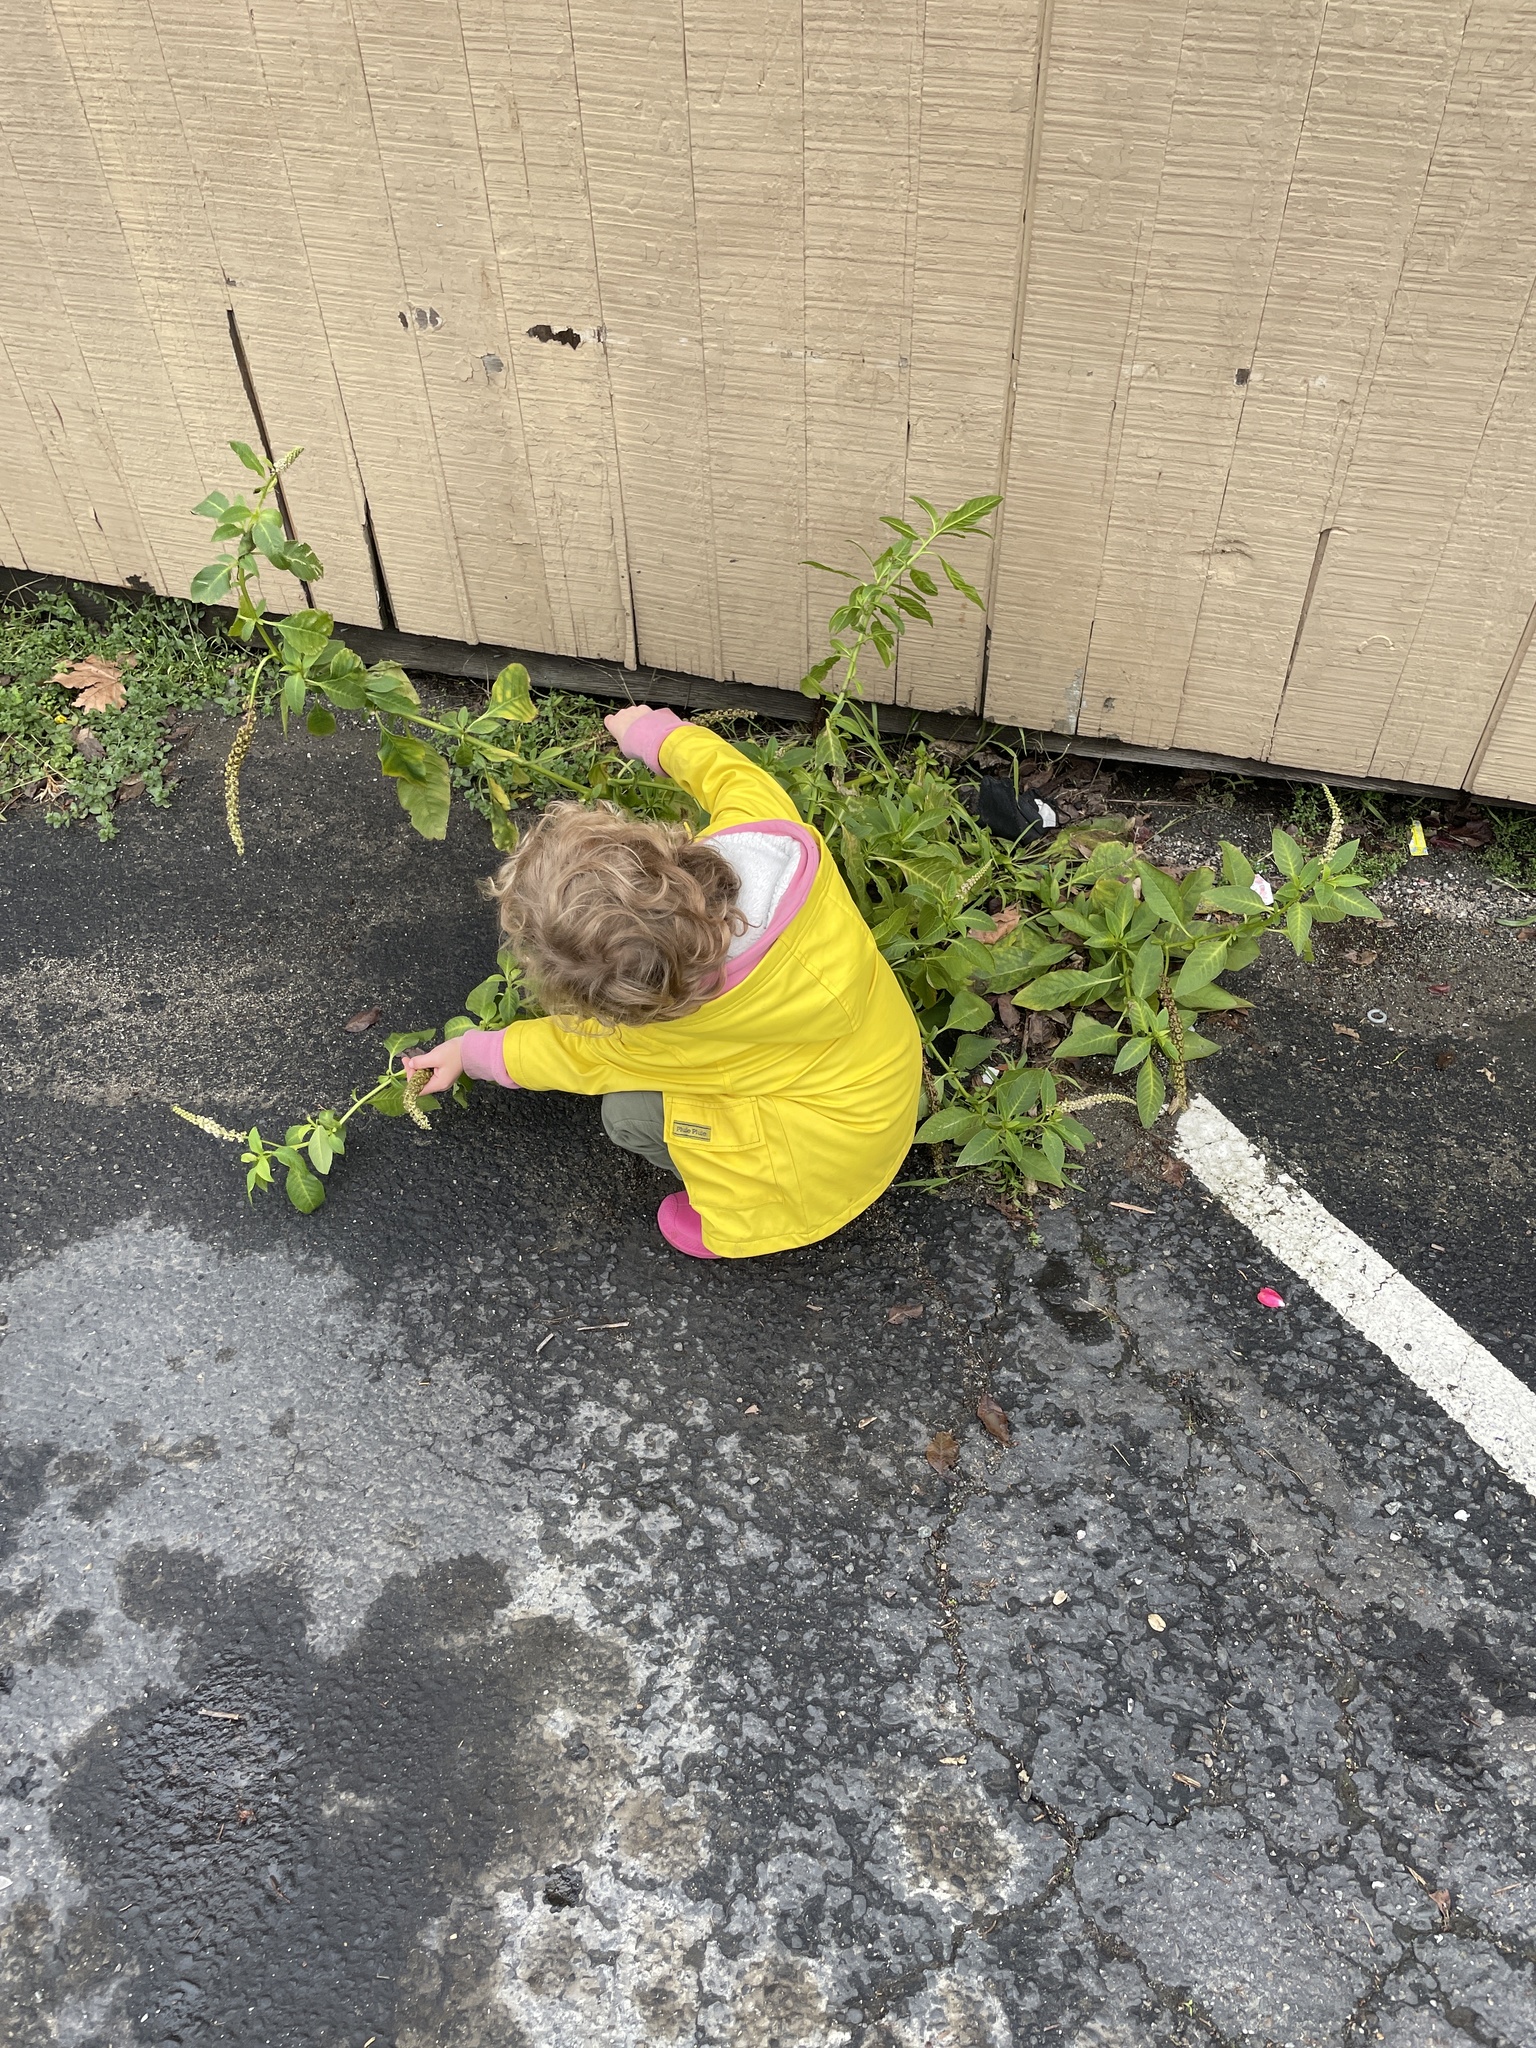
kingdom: Plantae
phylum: Tracheophyta
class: Magnoliopsida
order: Caryophyllales
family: Phytolaccaceae
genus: Phytolacca
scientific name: Phytolacca heterotepala
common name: Mexican pokeweed
